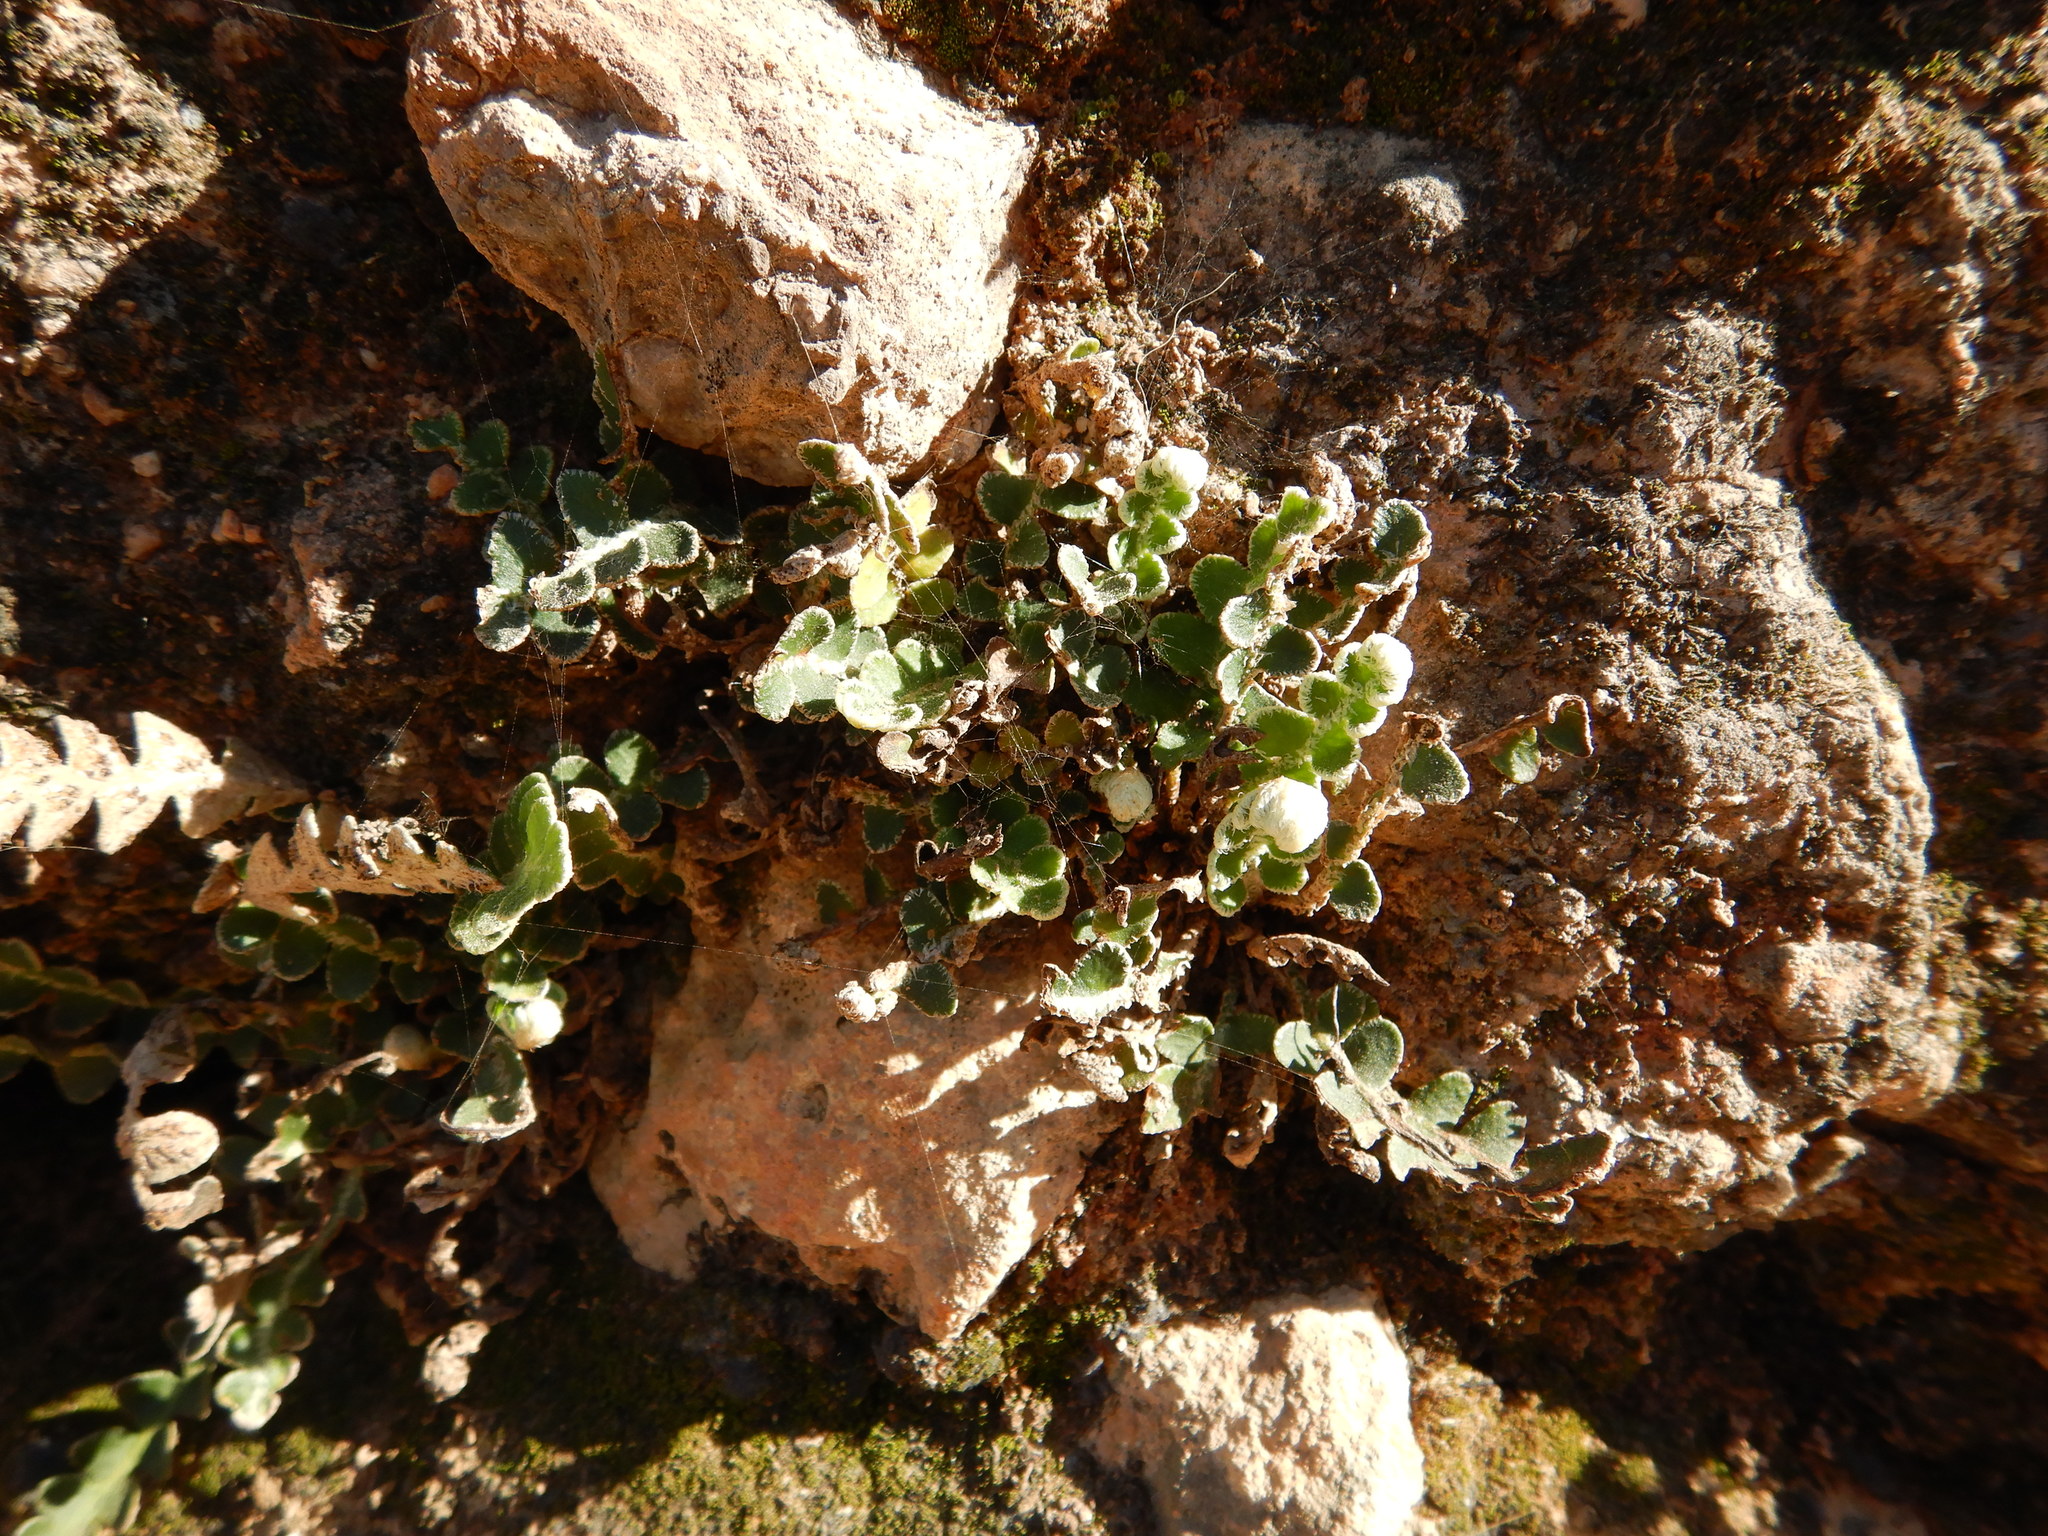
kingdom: Plantae
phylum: Tracheophyta
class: Polypodiopsida
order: Polypodiales
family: Aspleniaceae
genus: Asplenium
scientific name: Asplenium ceterach
